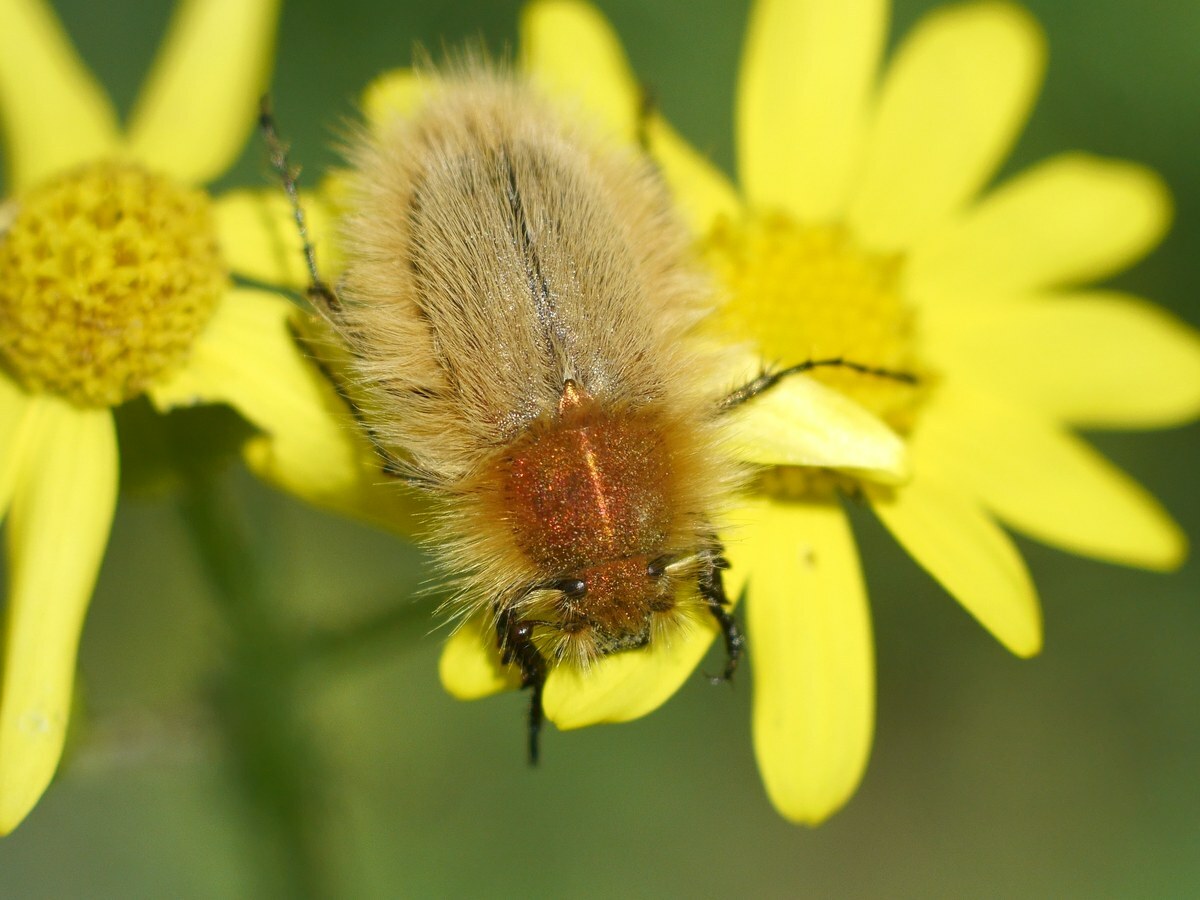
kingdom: Animalia
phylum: Arthropoda
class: Insecta
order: Coleoptera
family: Glaphyridae
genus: Pygopleurus
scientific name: Pygopleurus vulpes
